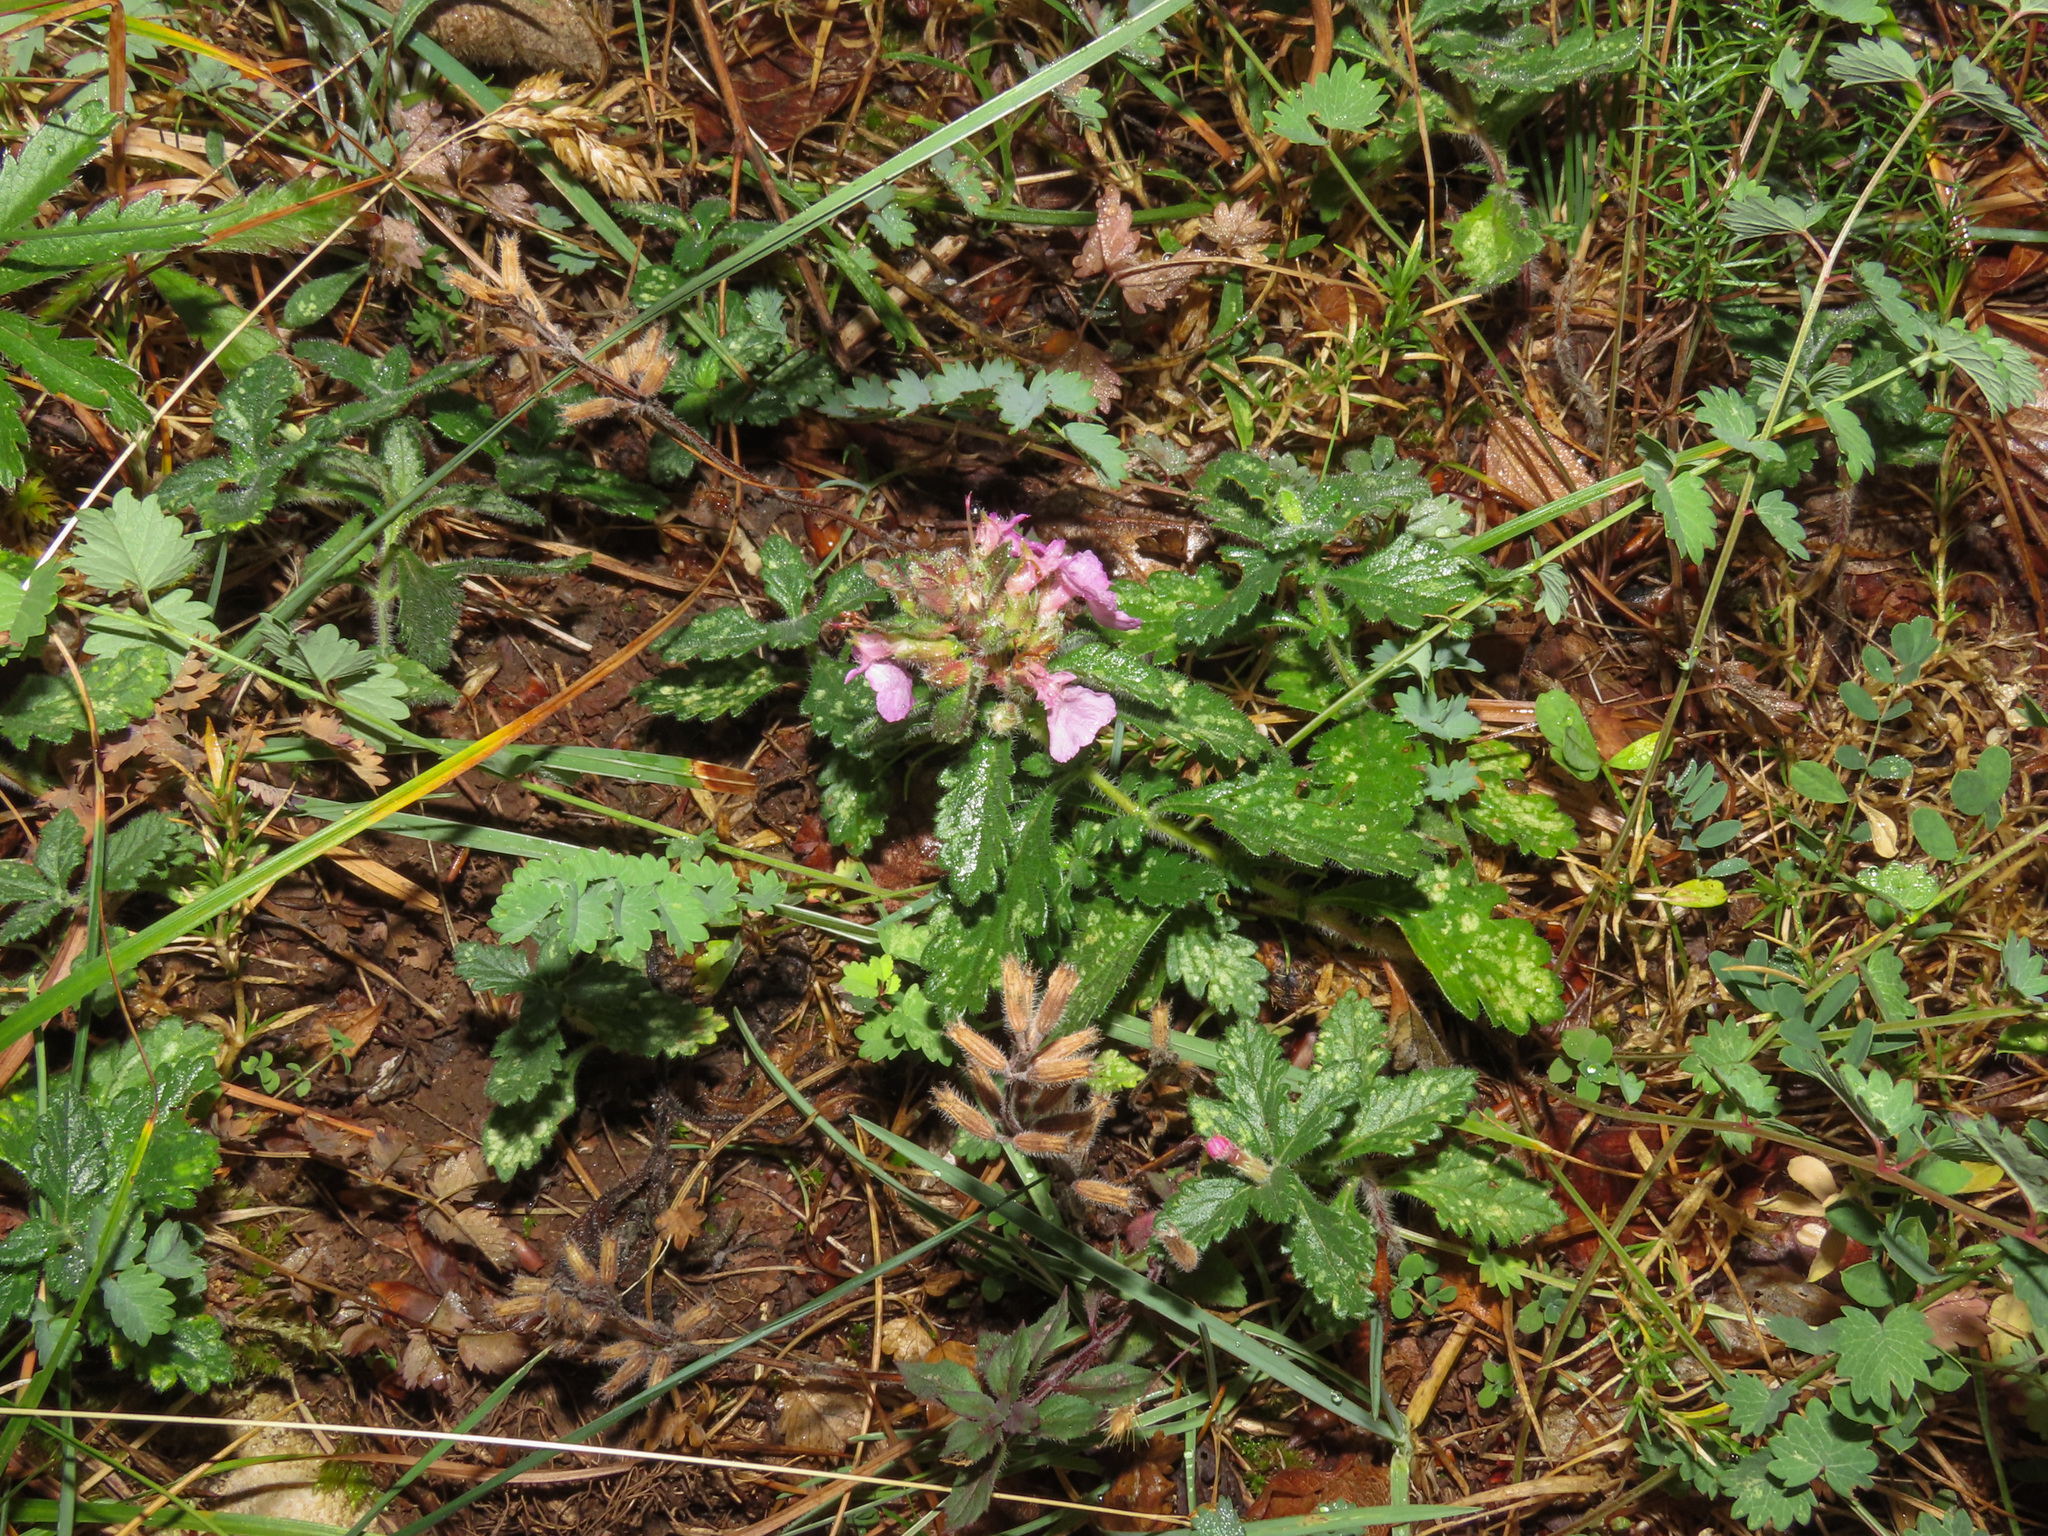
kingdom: Plantae
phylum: Tracheophyta
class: Magnoliopsida
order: Lamiales
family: Lamiaceae
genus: Teucrium
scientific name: Teucrium chamaedrys
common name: Wall germander
